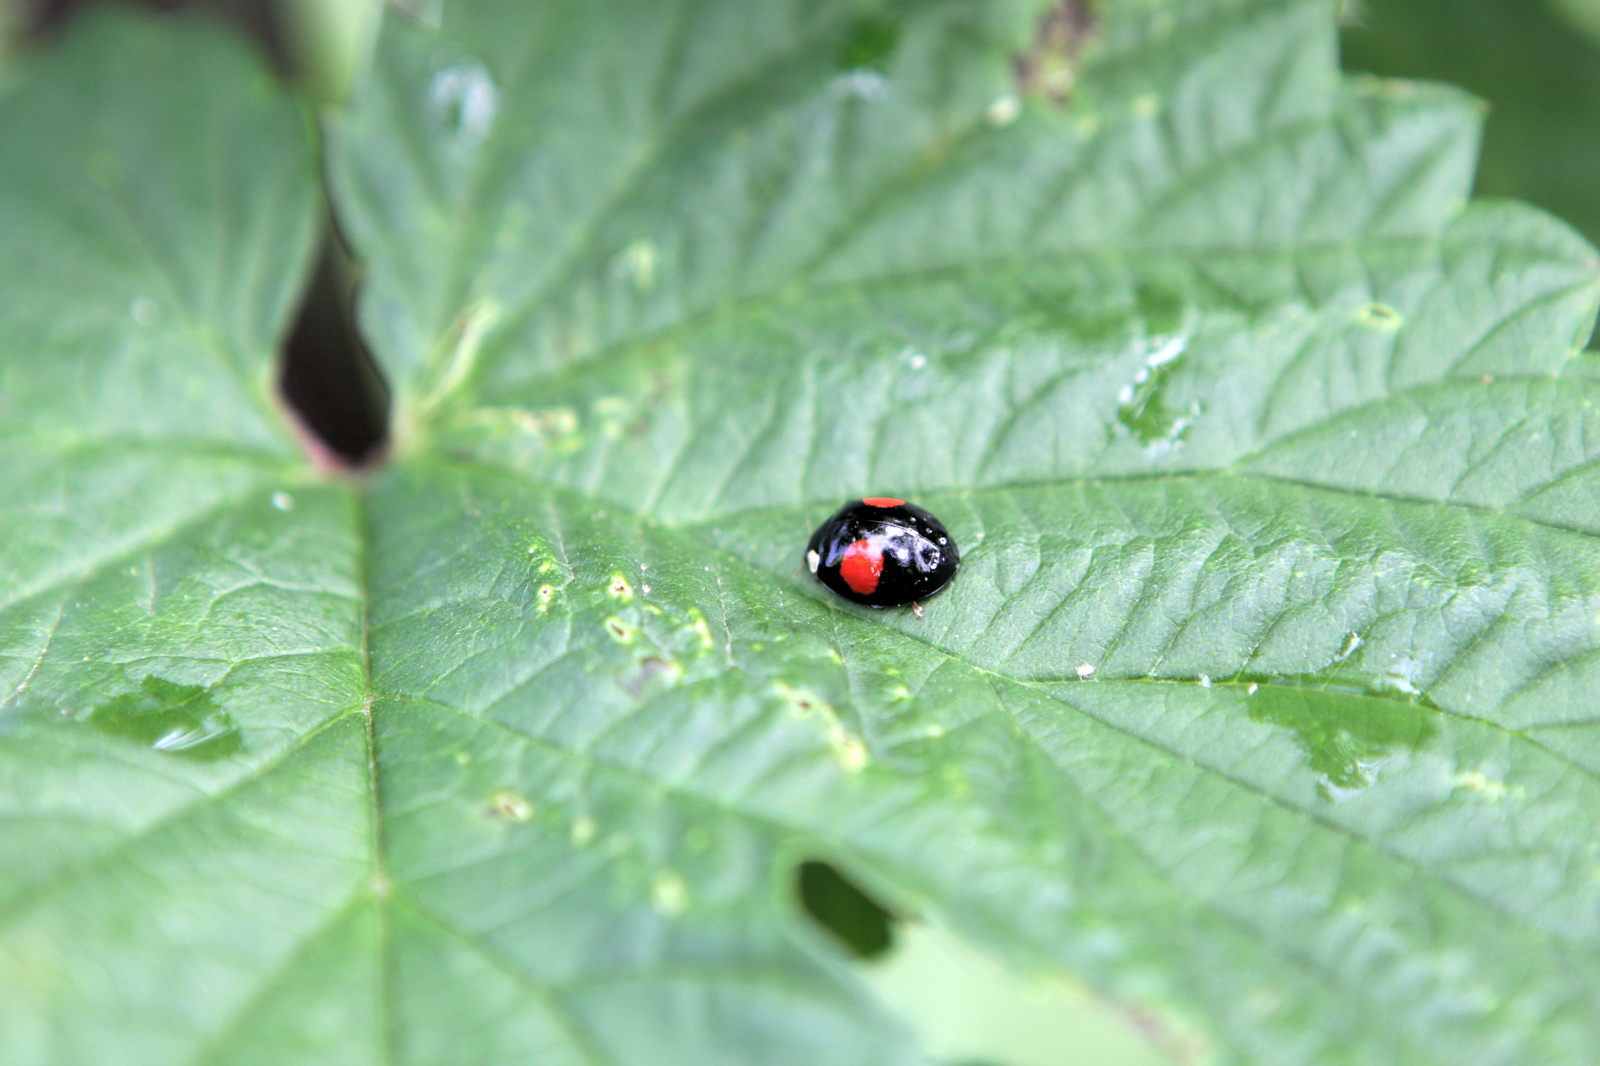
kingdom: Animalia
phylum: Arthropoda
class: Insecta
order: Coleoptera
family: Coccinellidae
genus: Harmonia
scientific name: Harmonia axyridis
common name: Harlequin ladybird
